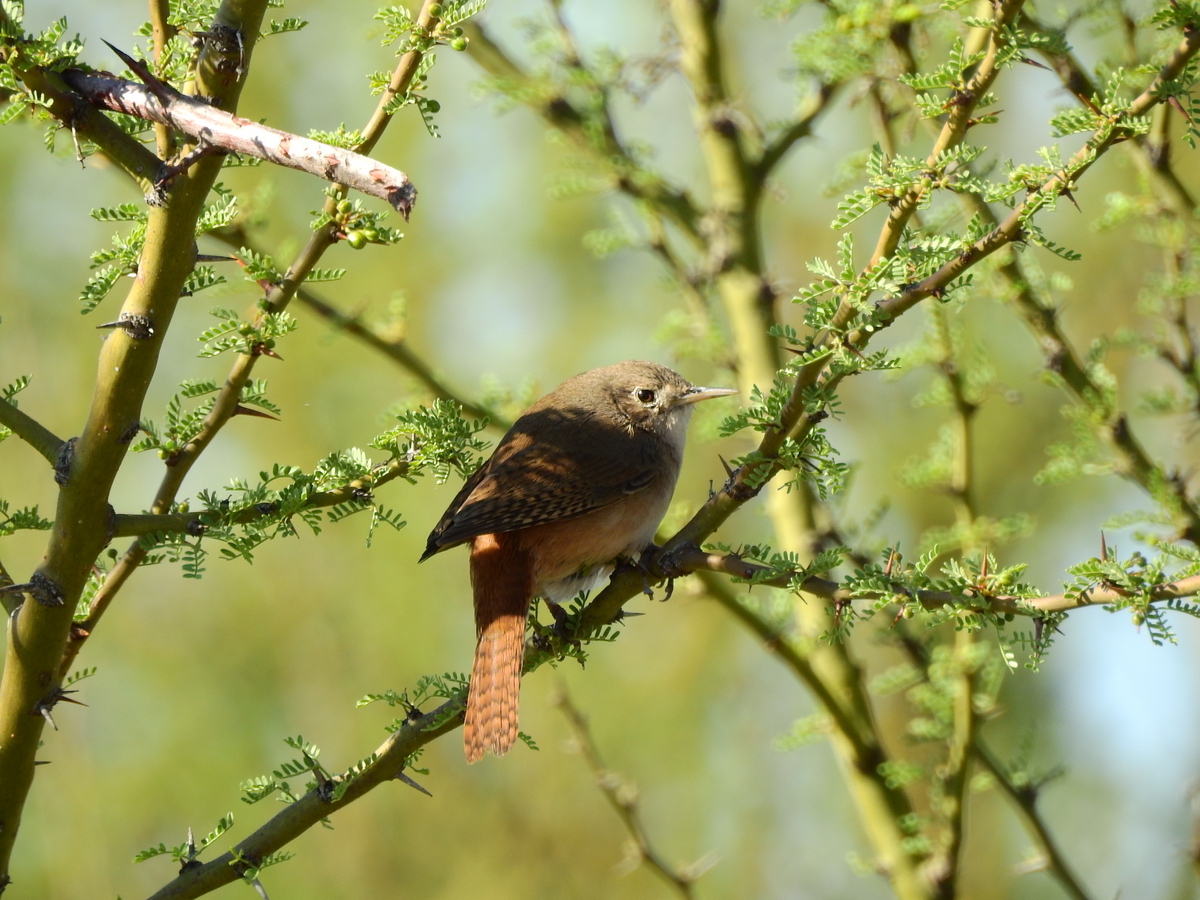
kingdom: Animalia
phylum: Chordata
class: Aves
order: Passeriformes
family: Troglodytidae
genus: Troglodytes
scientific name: Troglodytes aedon
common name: House wren
